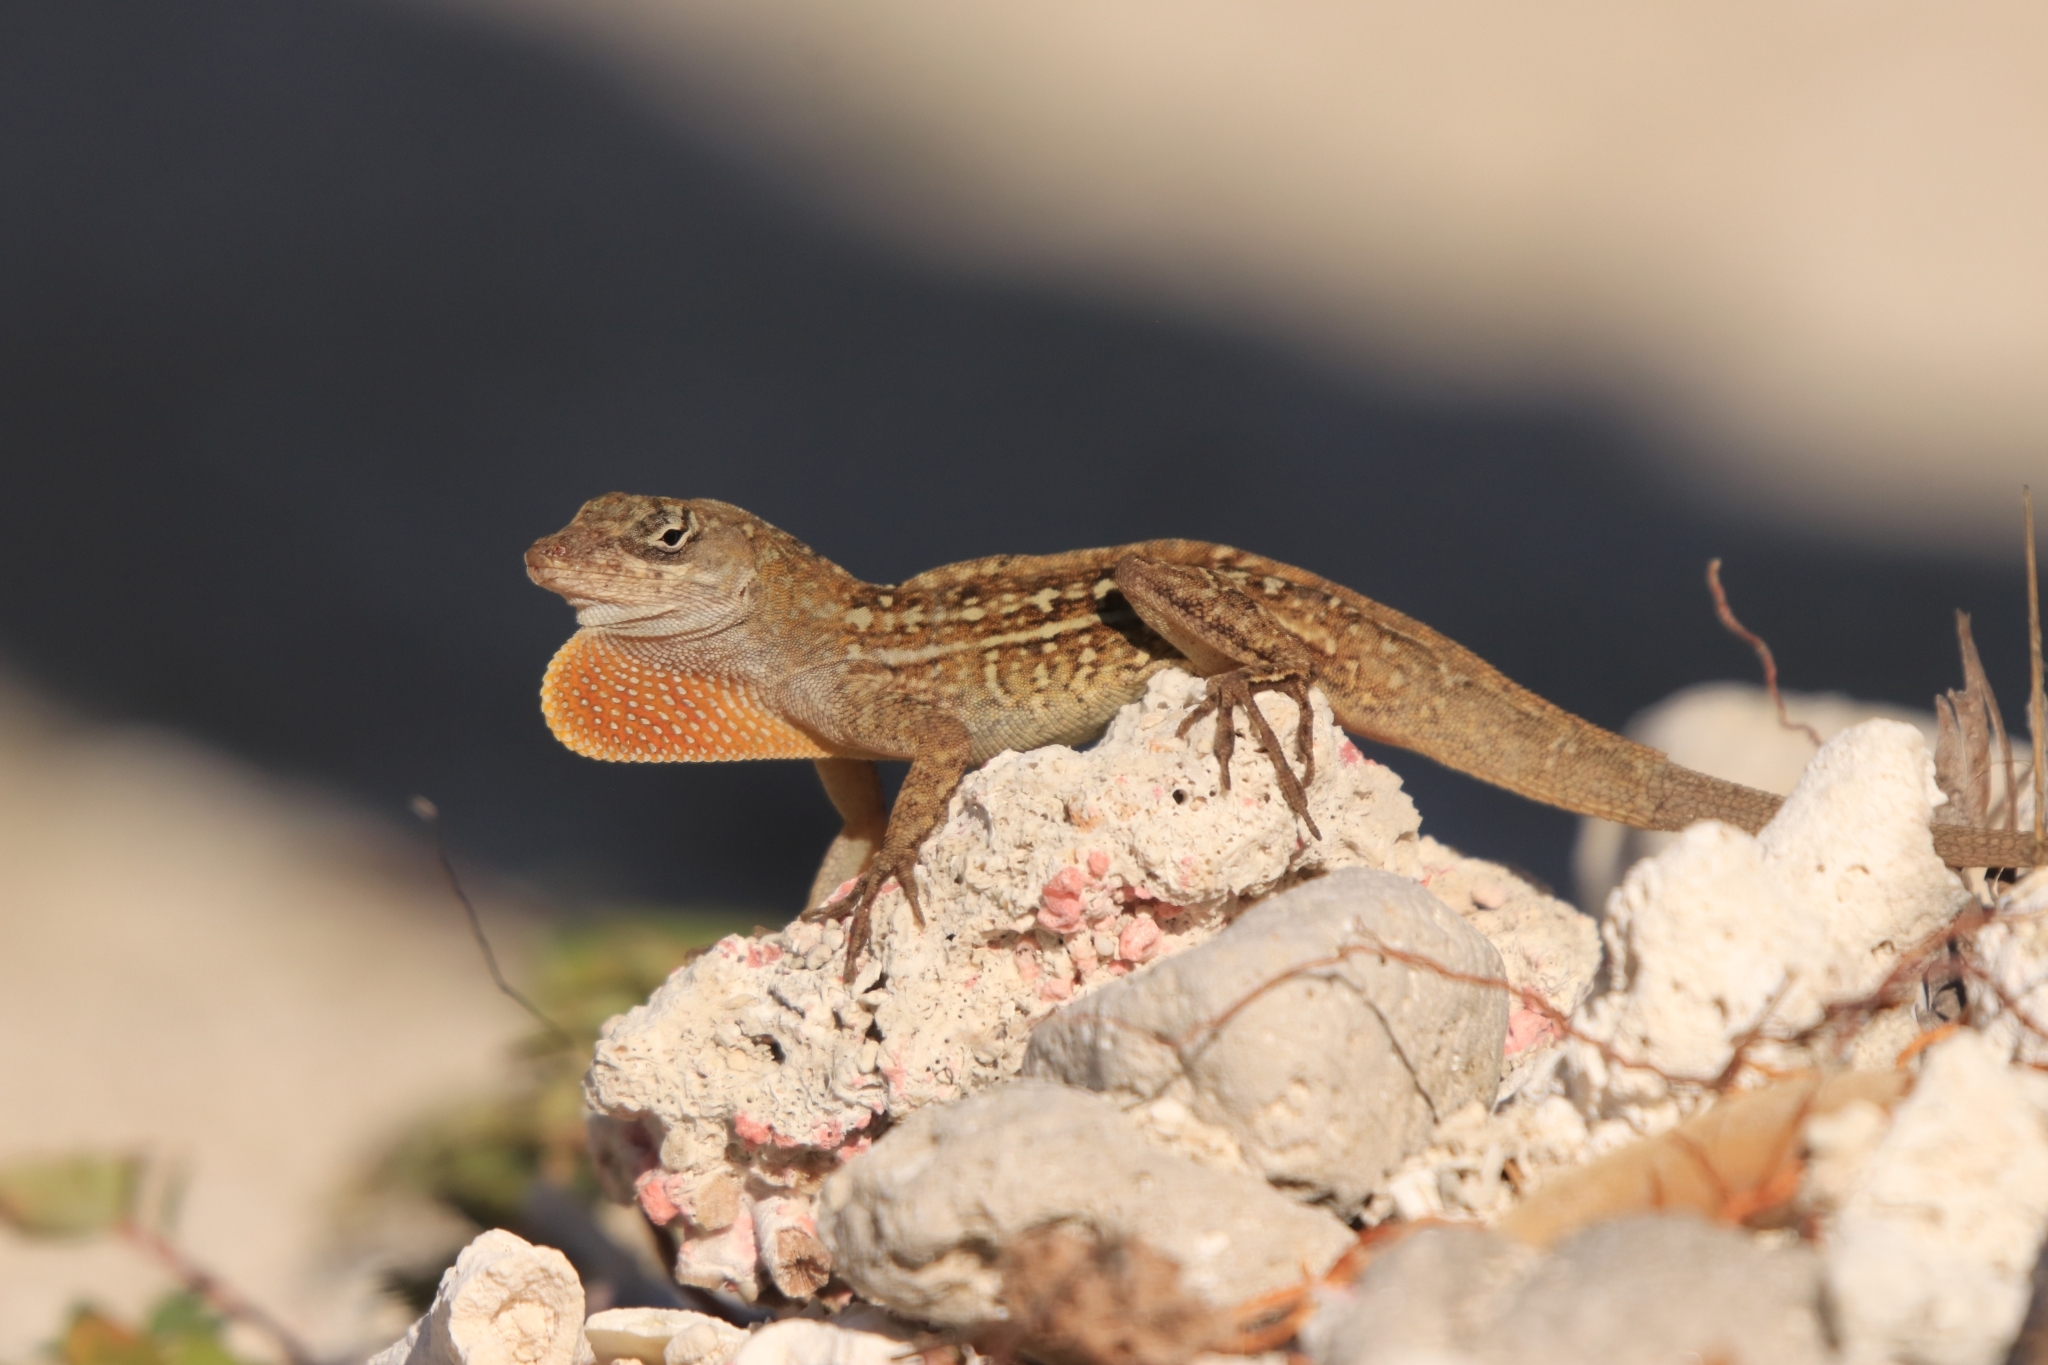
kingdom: Animalia
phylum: Chordata
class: Squamata
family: Dactyloidae
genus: Anolis
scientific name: Anolis sagrei
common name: Brown anole
